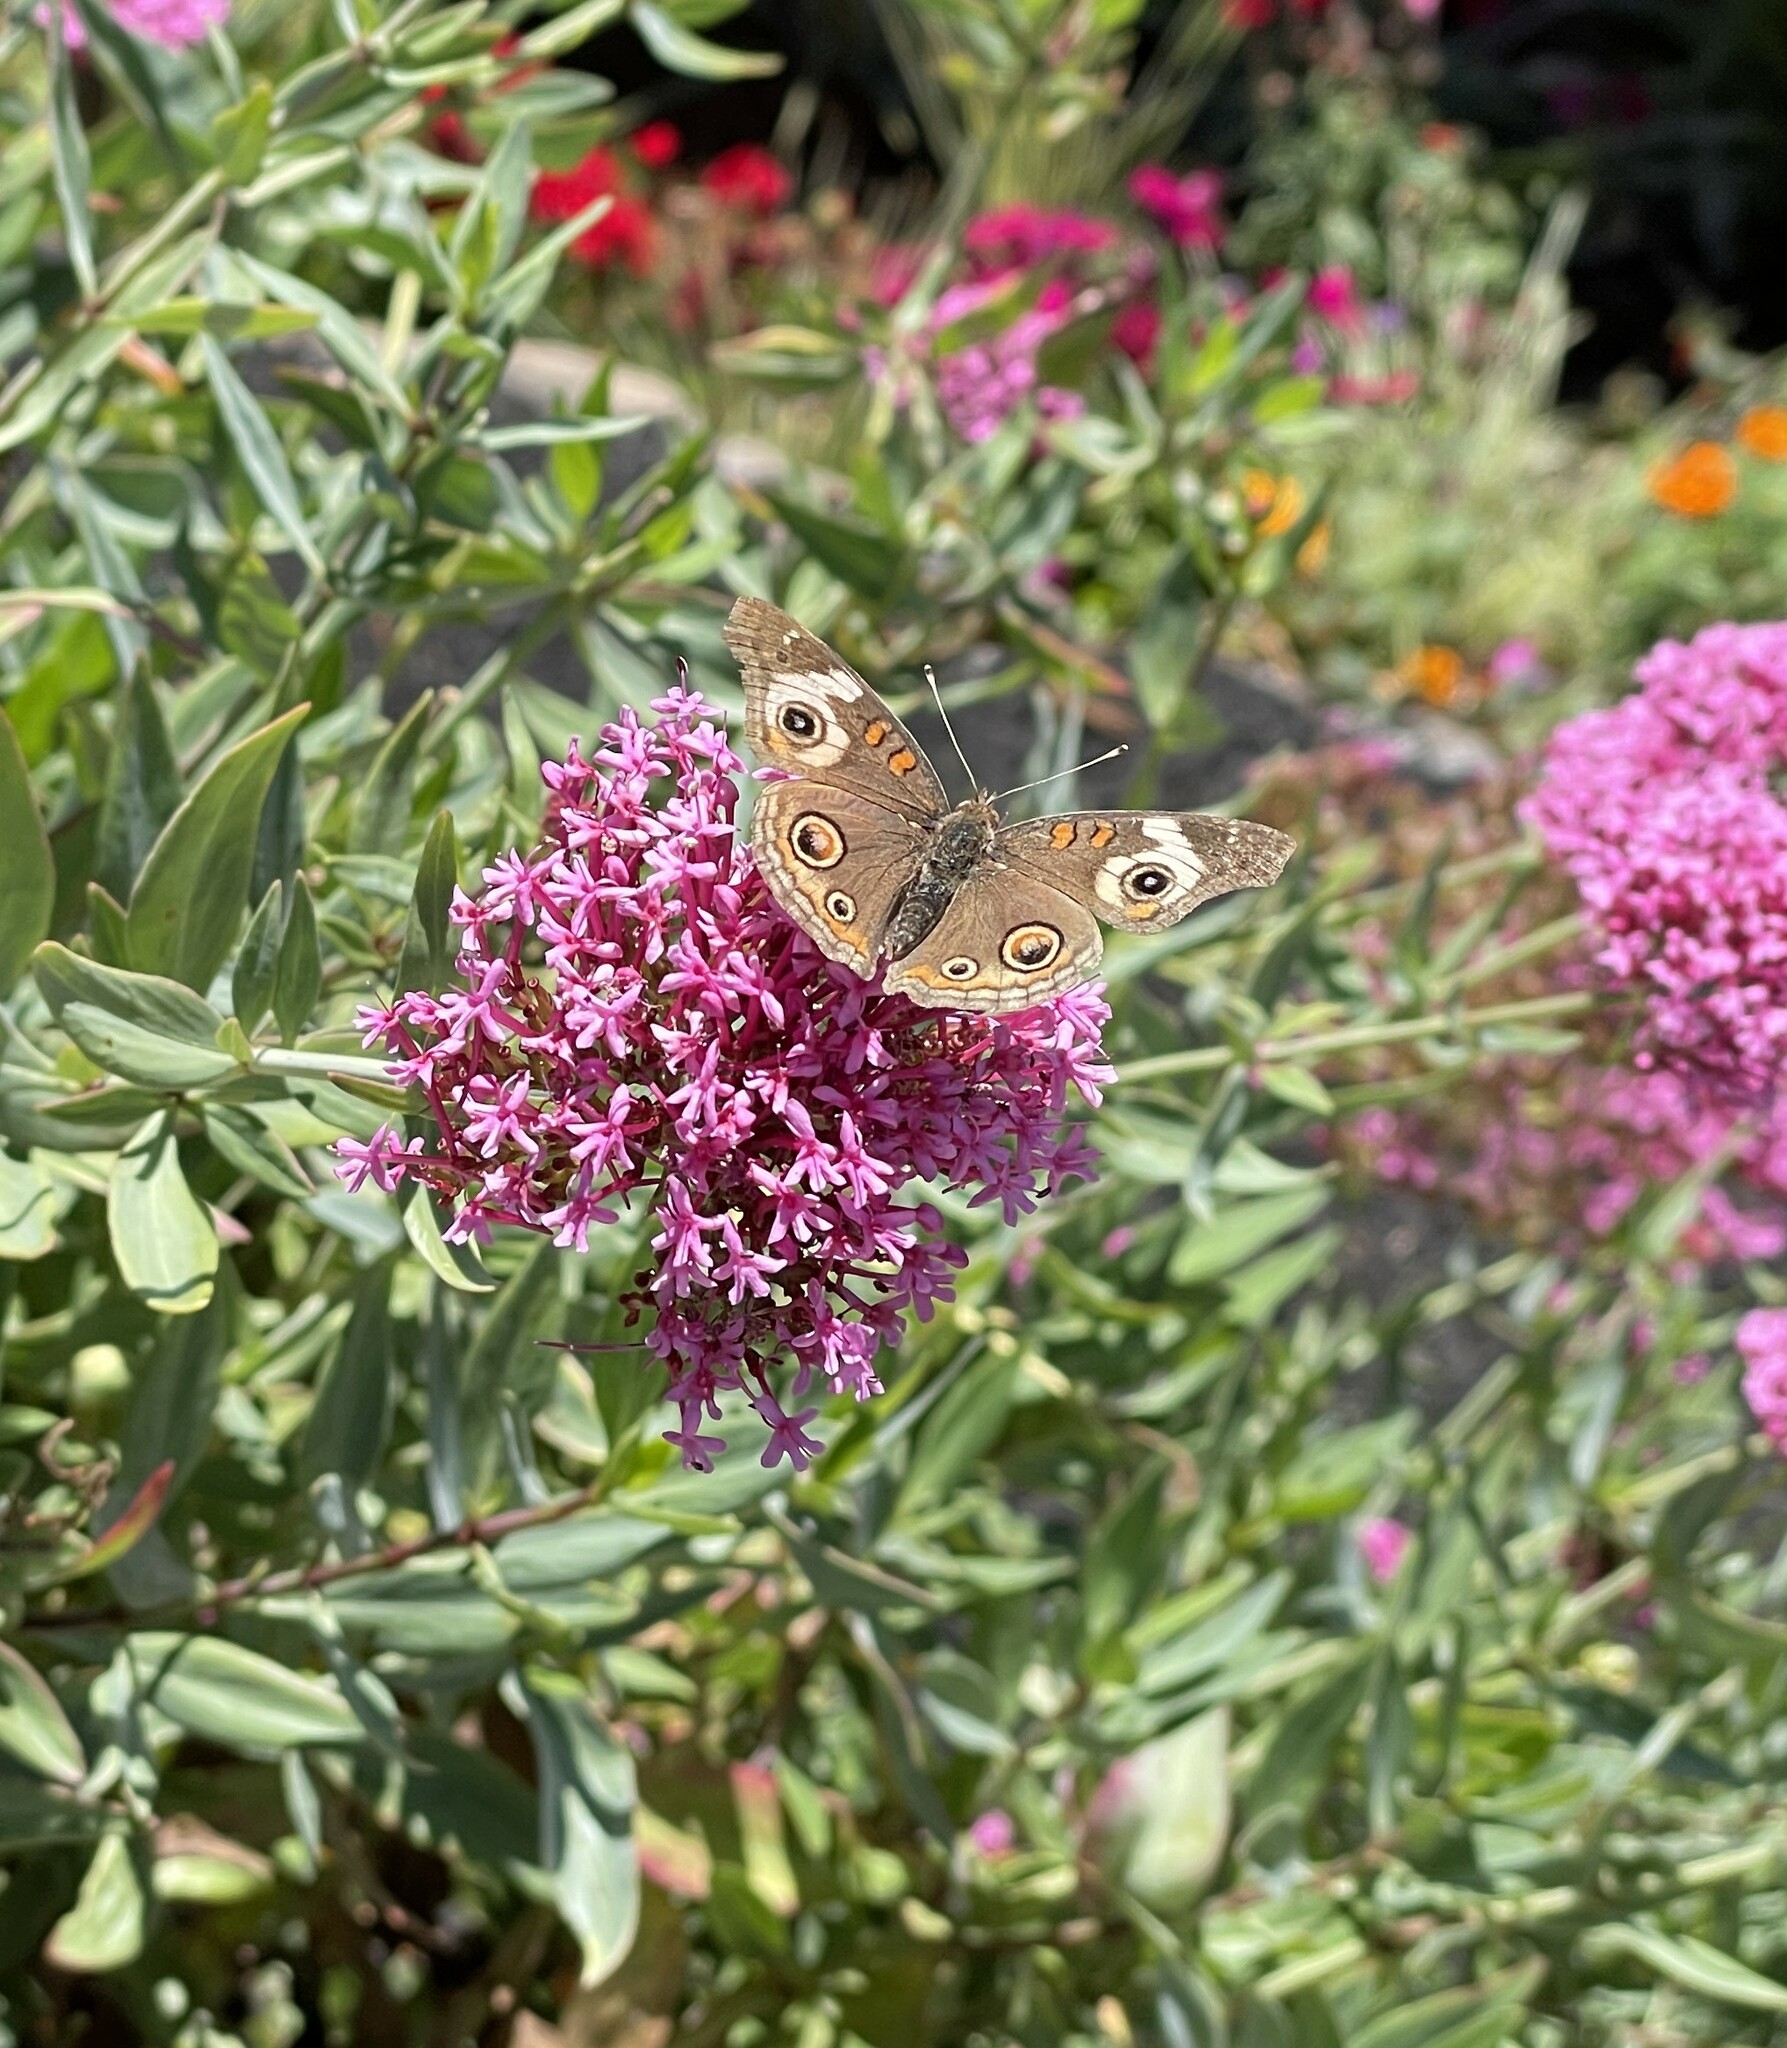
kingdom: Animalia
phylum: Arthropoda
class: Insecta
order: Lepidoptera
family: Nymphalidae
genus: Junonia
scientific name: Junonia grisea
